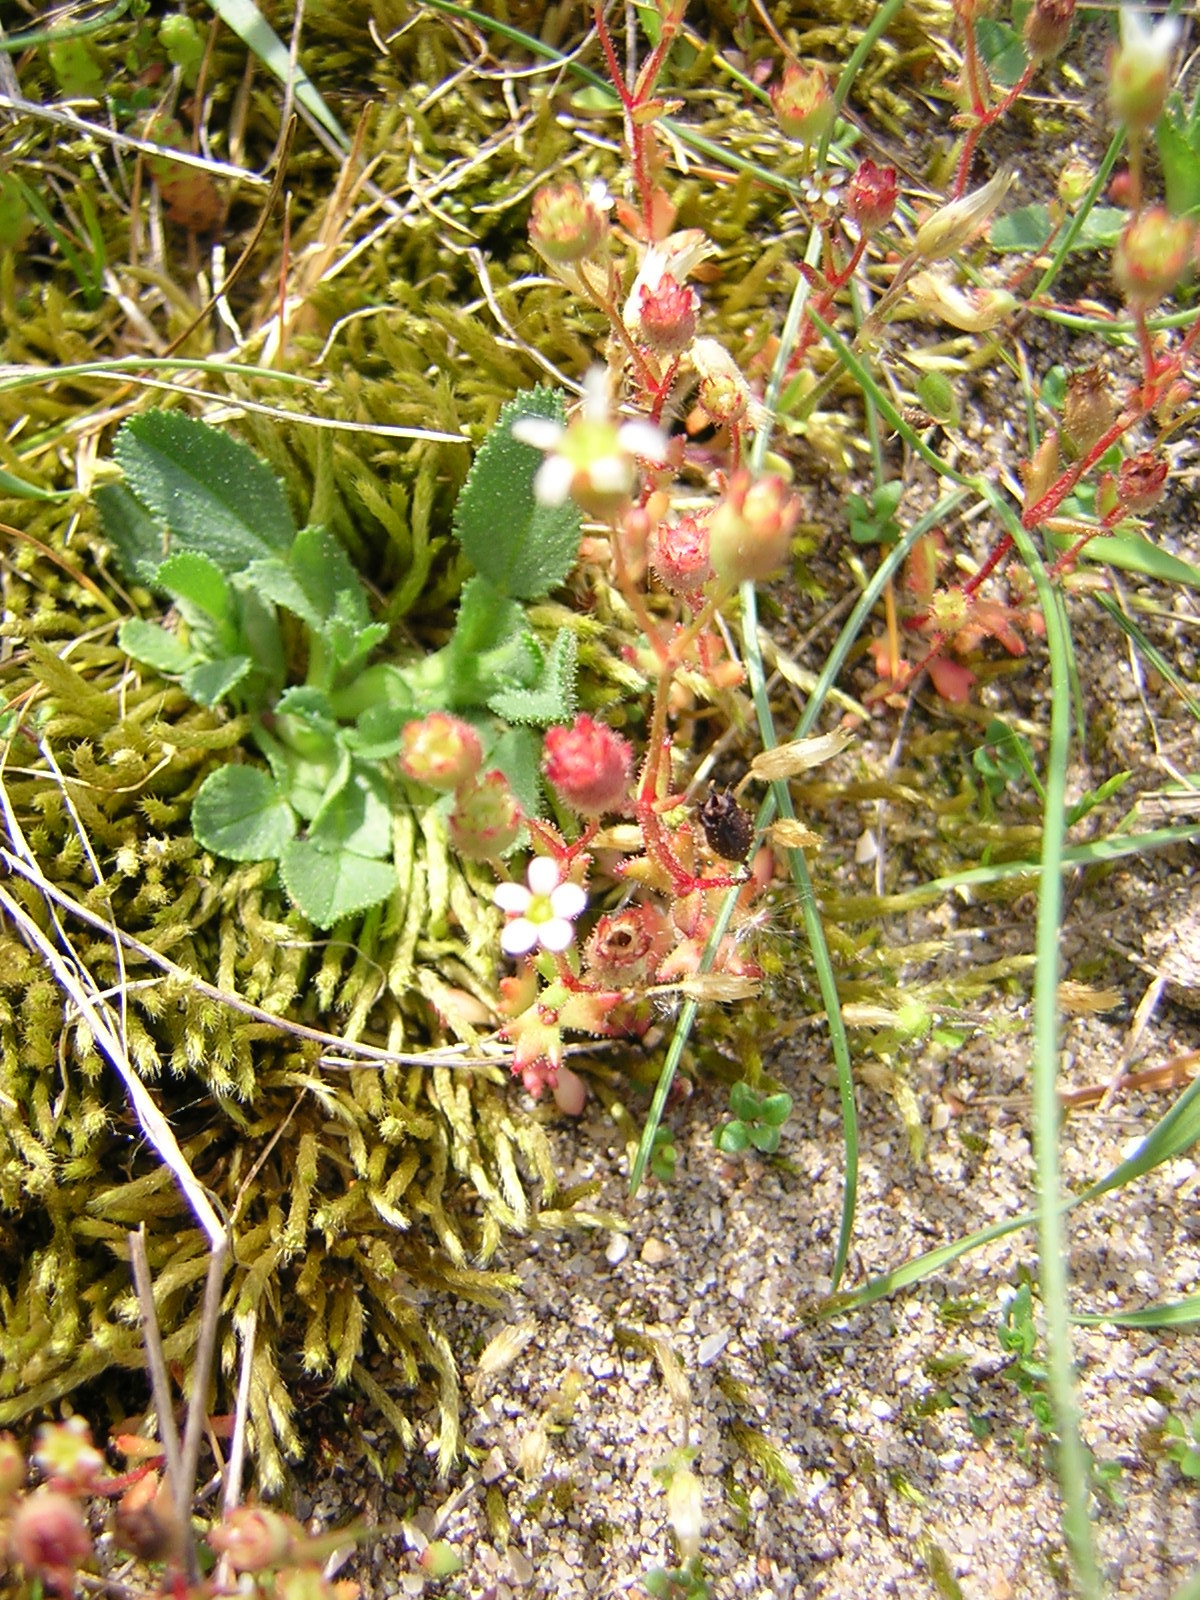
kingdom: Plantae
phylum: Tracheophyta
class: Magnoliopsida
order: Saxifragales
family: Saxifragaceae
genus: Saxifraga
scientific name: Saxifraga tridactylites
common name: Rue-leaved saxifrage
